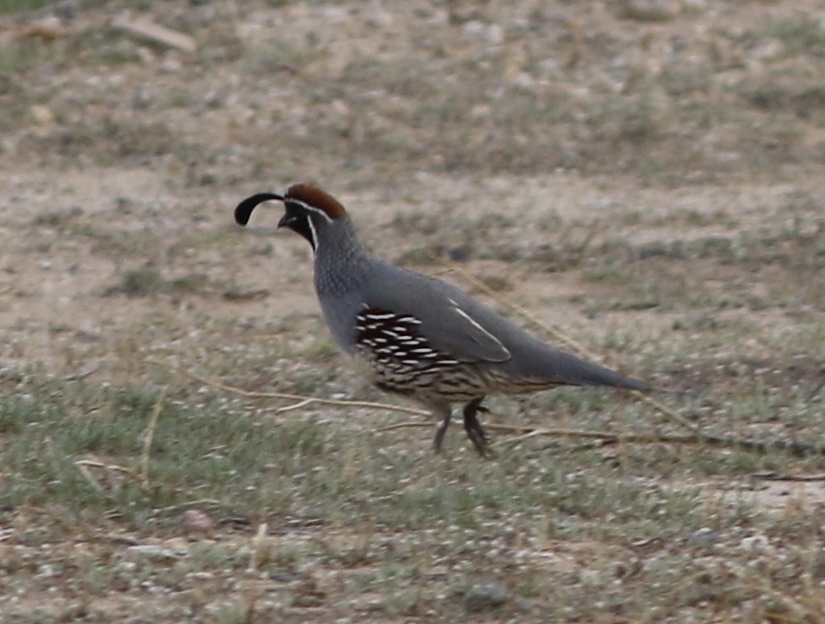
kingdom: Animalia
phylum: Chordata
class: Aves
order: Galliformes
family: Odontophoridae
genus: Callipepla
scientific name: Callipepla gambelii
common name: Gambel's quail
